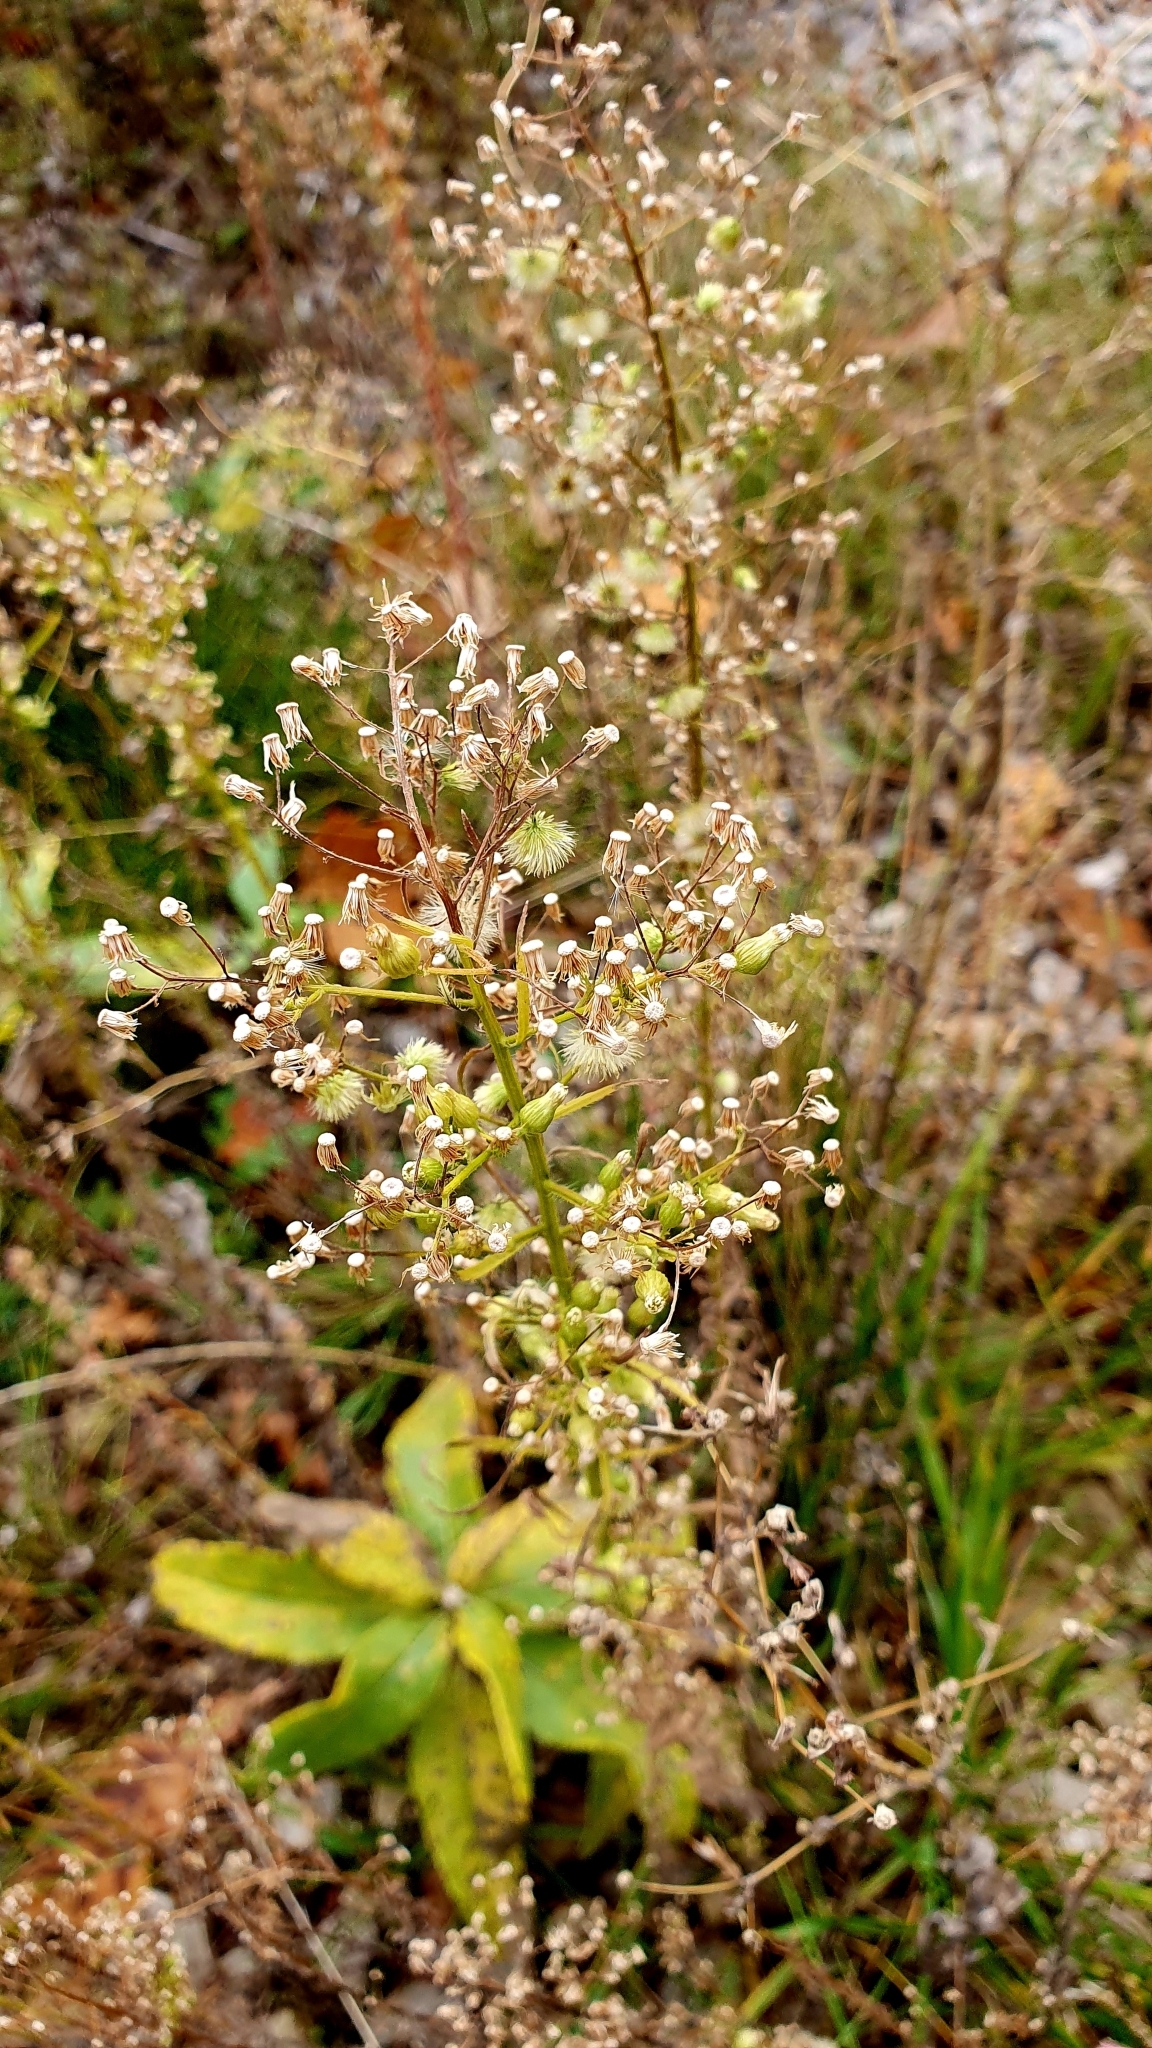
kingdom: Plantae
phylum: Tracheophyta
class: Magnoliopsida
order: Asterales
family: Asteraceae
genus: Erigeron
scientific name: Erigeron canadensis
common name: Canadian fleabane
